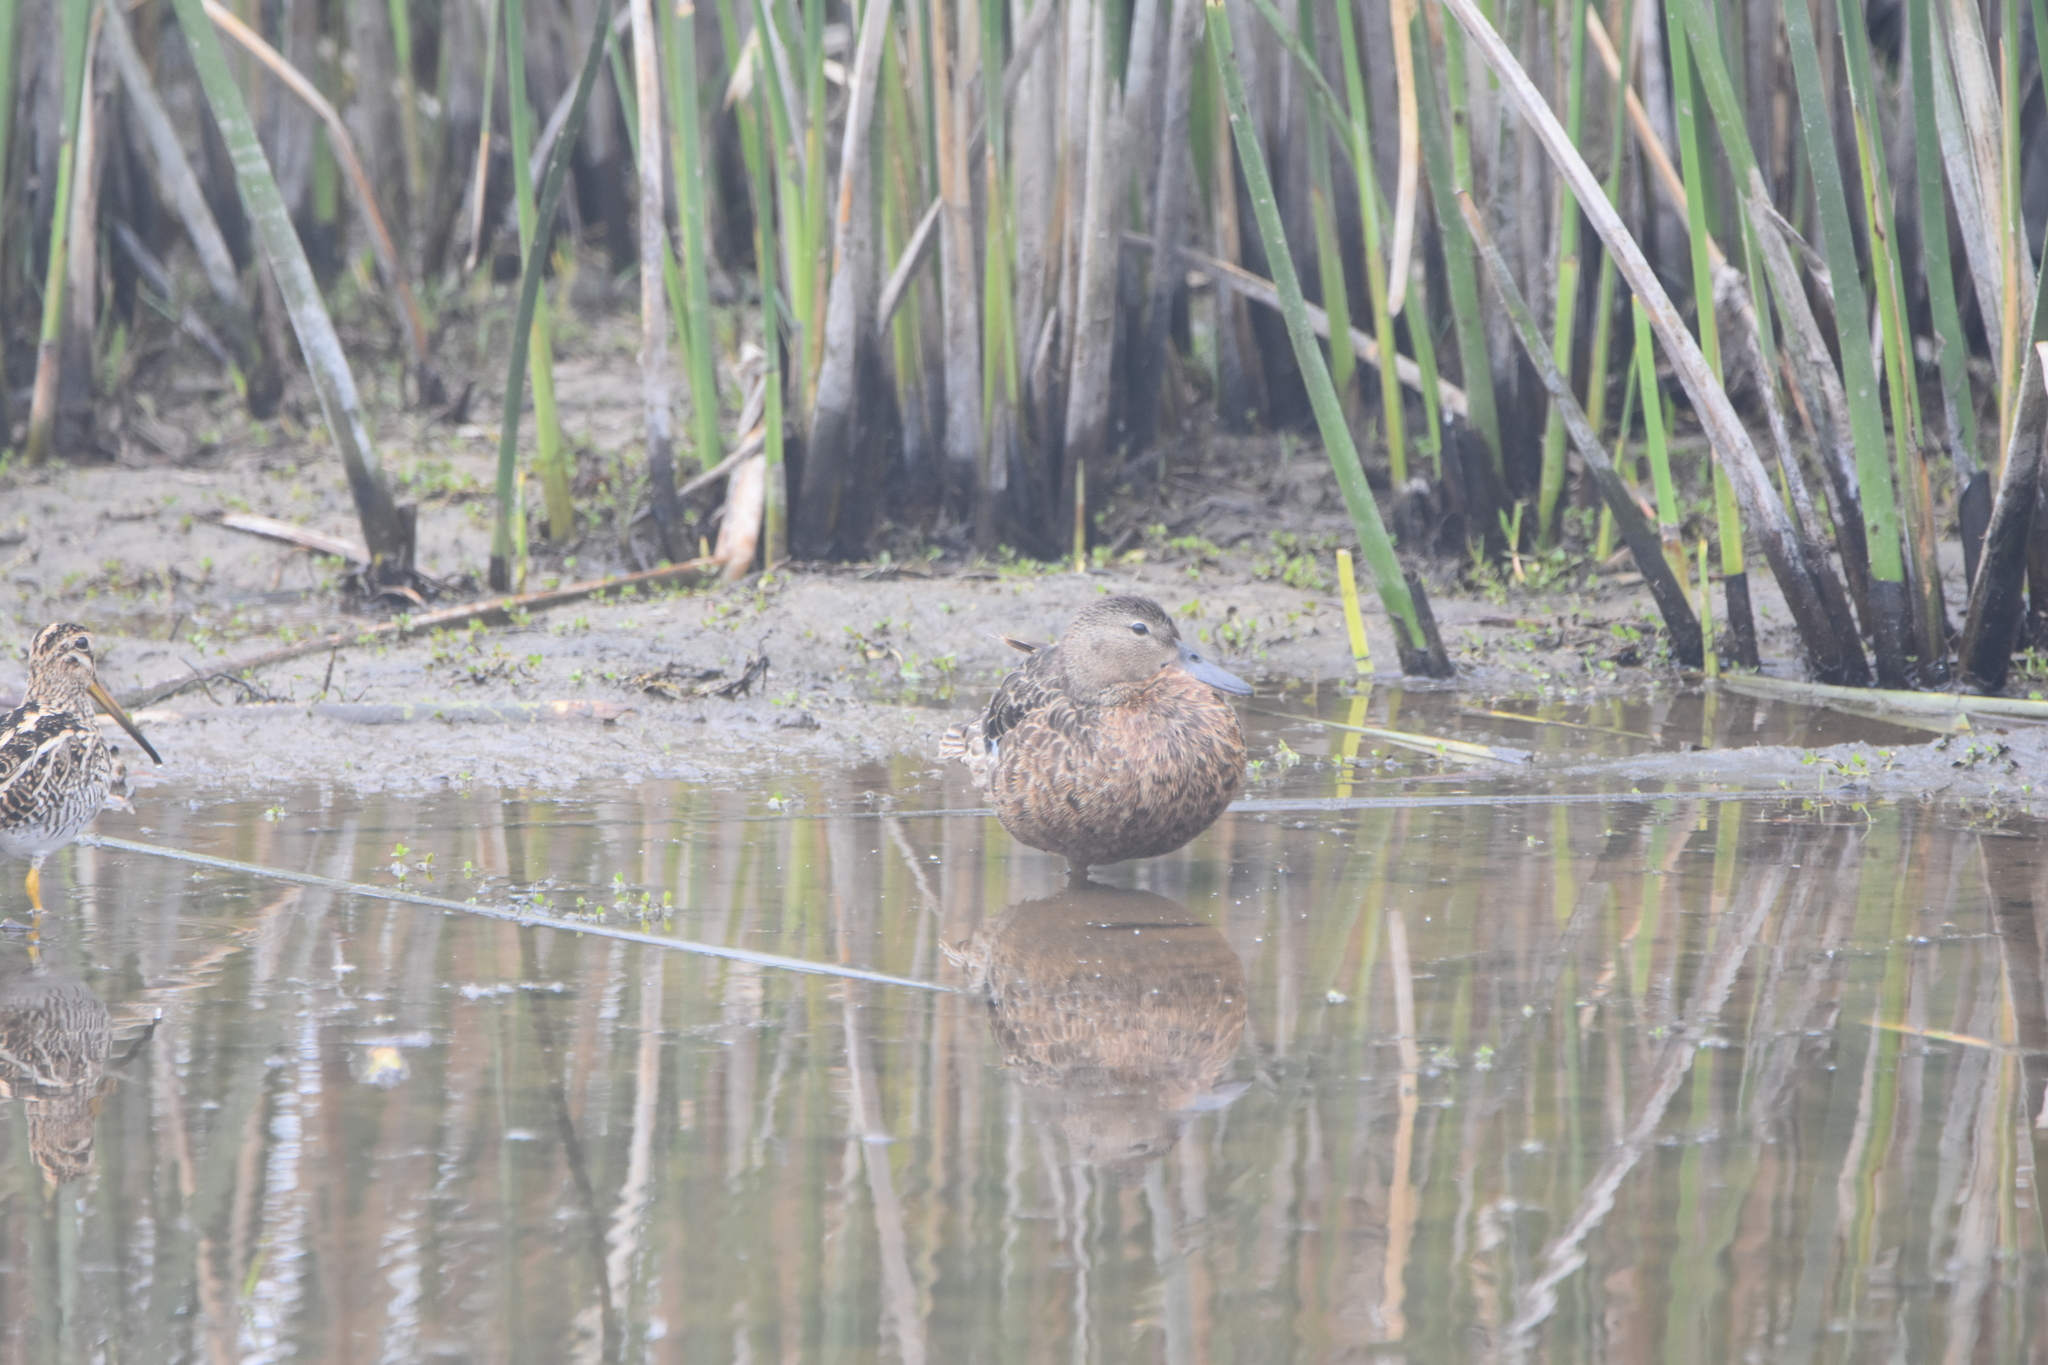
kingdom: Animalia
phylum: Chordata
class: Aves
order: Anseriformes
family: Anatidae
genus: Spatula
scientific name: Spatula cyanoptera
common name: Cinnamon teal
